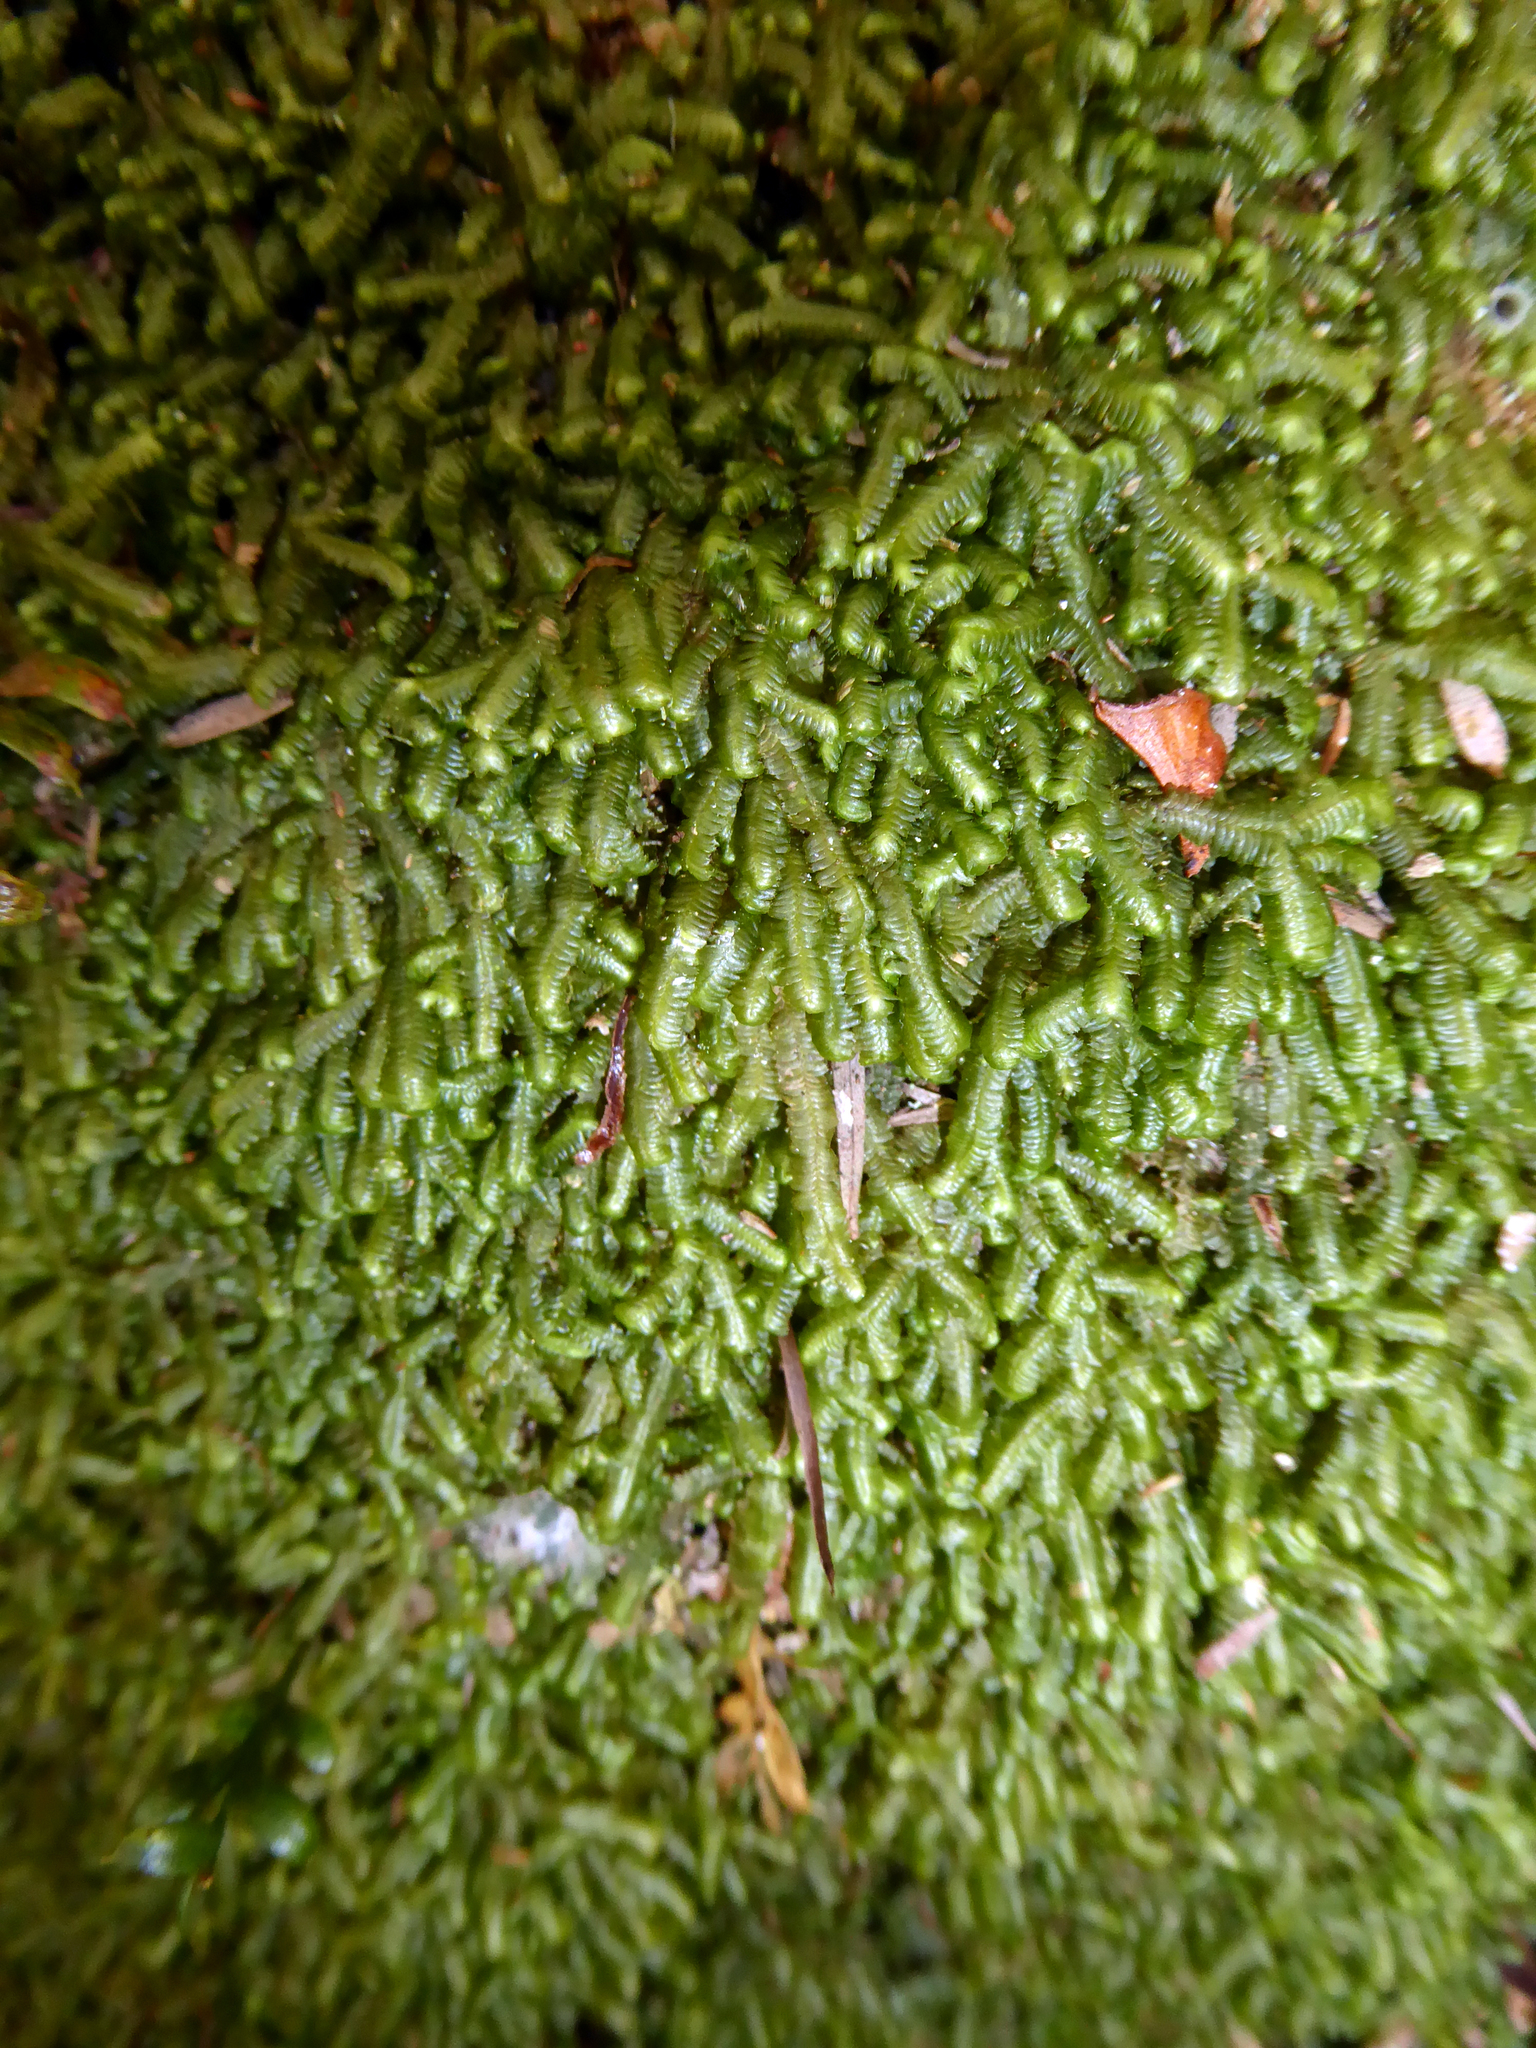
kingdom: Plantae
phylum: Marchantiophyta
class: Jungermanniopsida
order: Jungermanniales
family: Lepidoziaceae
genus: Bazzania
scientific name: Bazzania adnexa
